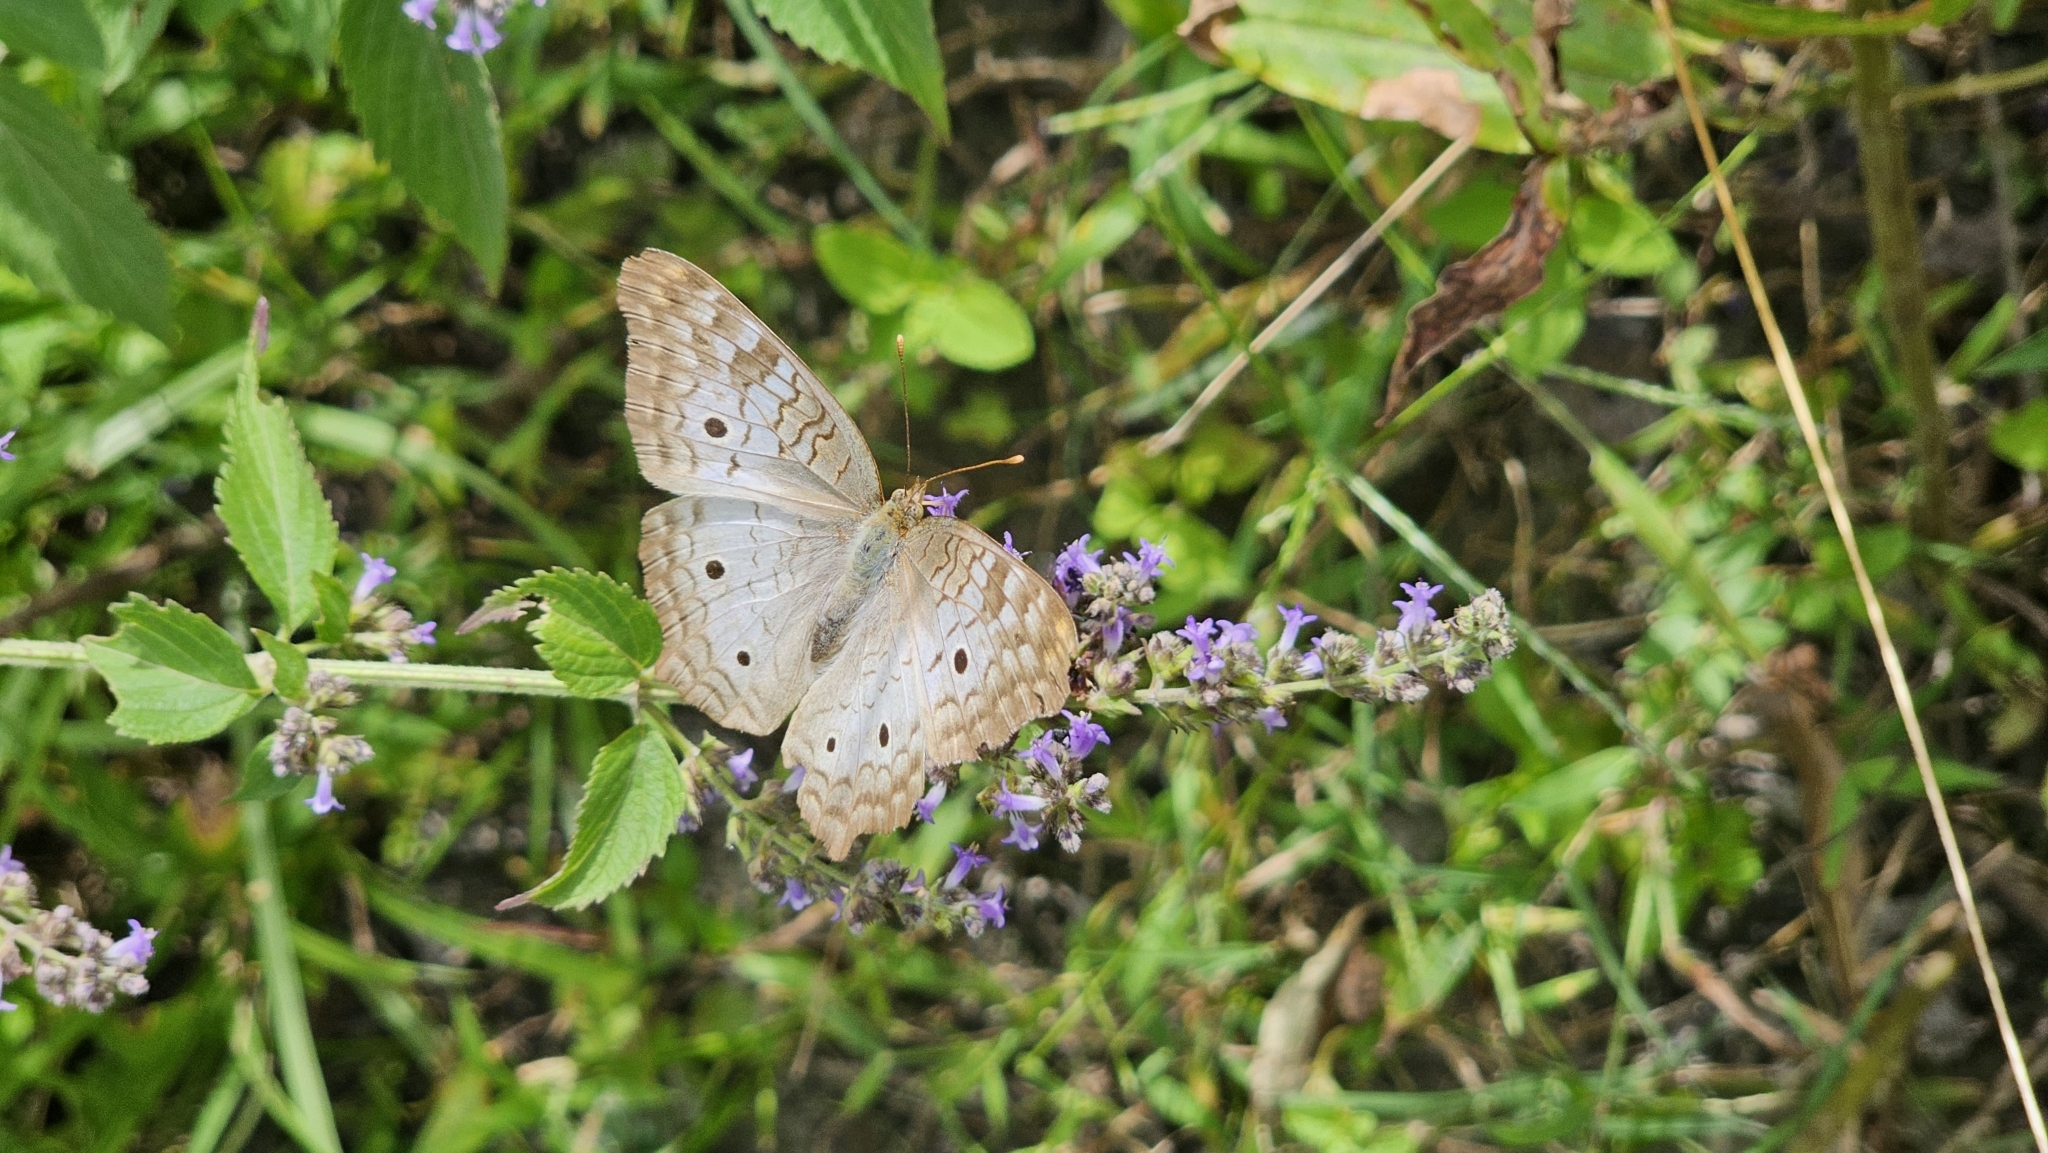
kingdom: Animalia
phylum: Arthropoda
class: Insecta
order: Lepidoptera
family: Nymphalidae
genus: Anartia
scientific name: Anartia jatrophae
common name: White peacock
